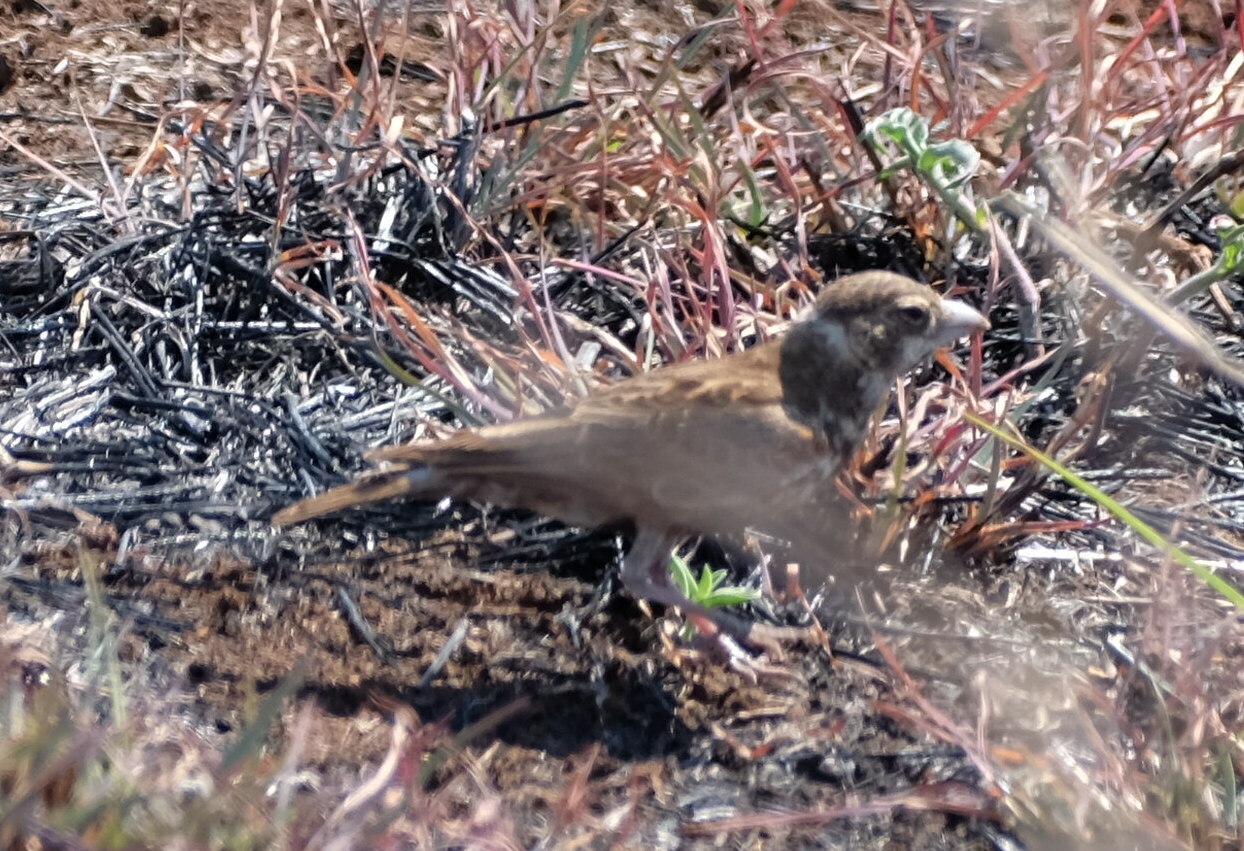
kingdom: Animalia
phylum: Chordata
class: Aves
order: Passeriformes
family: Alaudidae
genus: Eremopterix
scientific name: Eremopterix leucotis
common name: Chestnut-backed sparrow-lark
